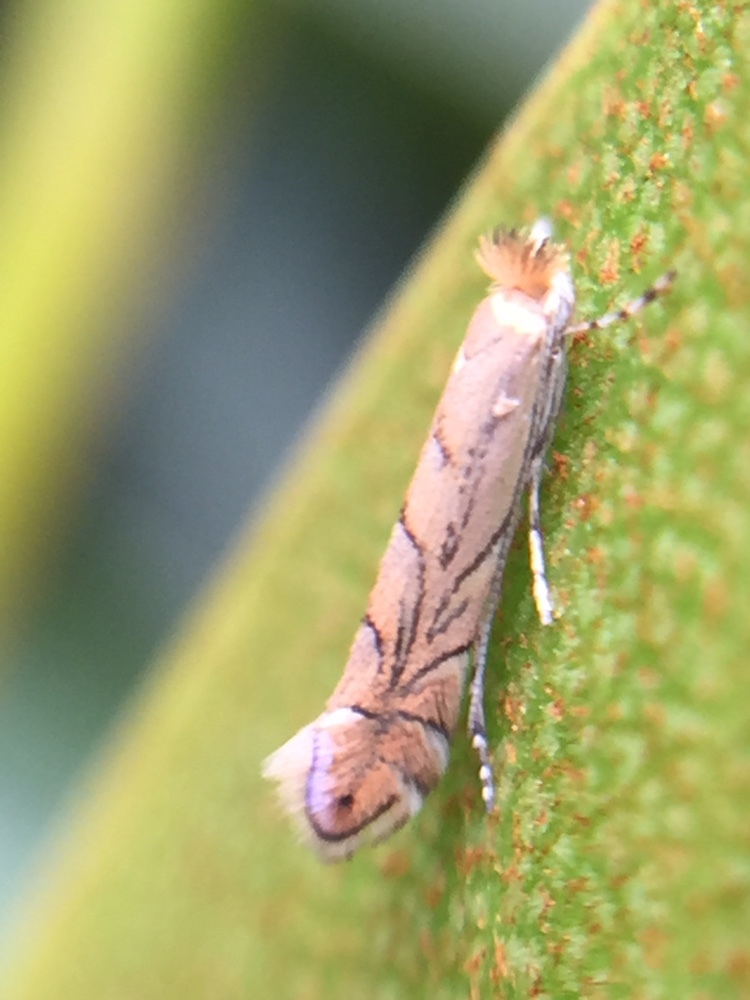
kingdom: Animalia
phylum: Arthropoda
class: Insecta
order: Lepidoptera
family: Gracillariidae
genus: Phyllonorycter
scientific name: Phyllonorycter messaniella
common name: Garden midget
